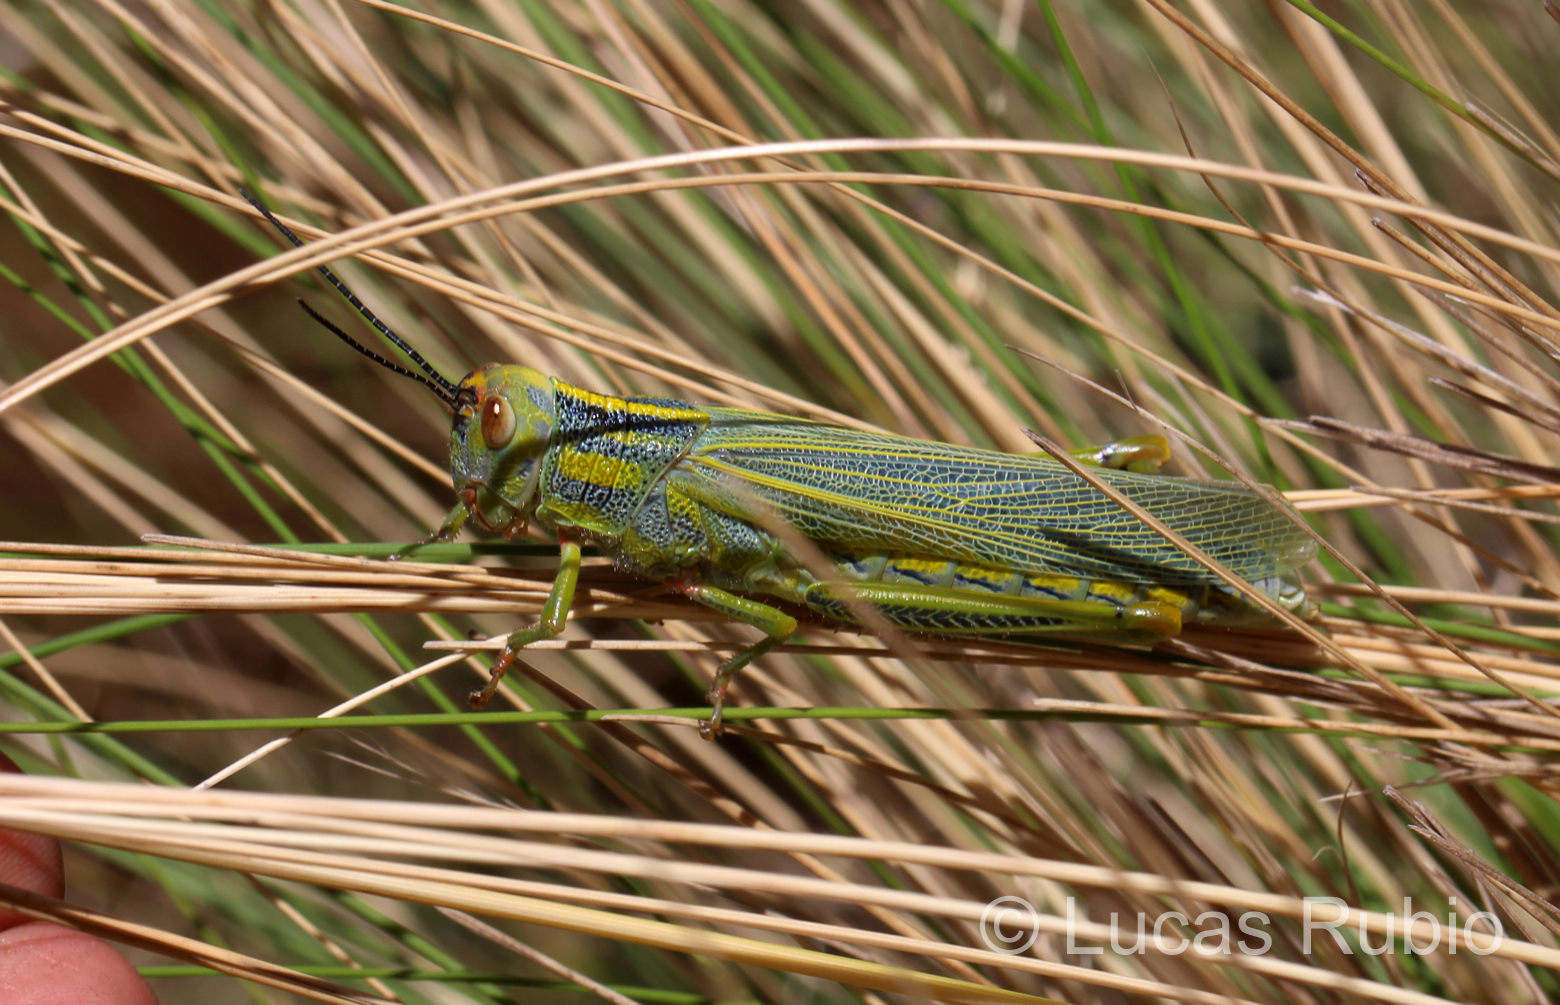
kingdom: Animalia
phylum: Arthropoda
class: Insecta
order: Orthoptera
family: Romaleidae
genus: Zoniopoda
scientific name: Zoniopoda serrana
